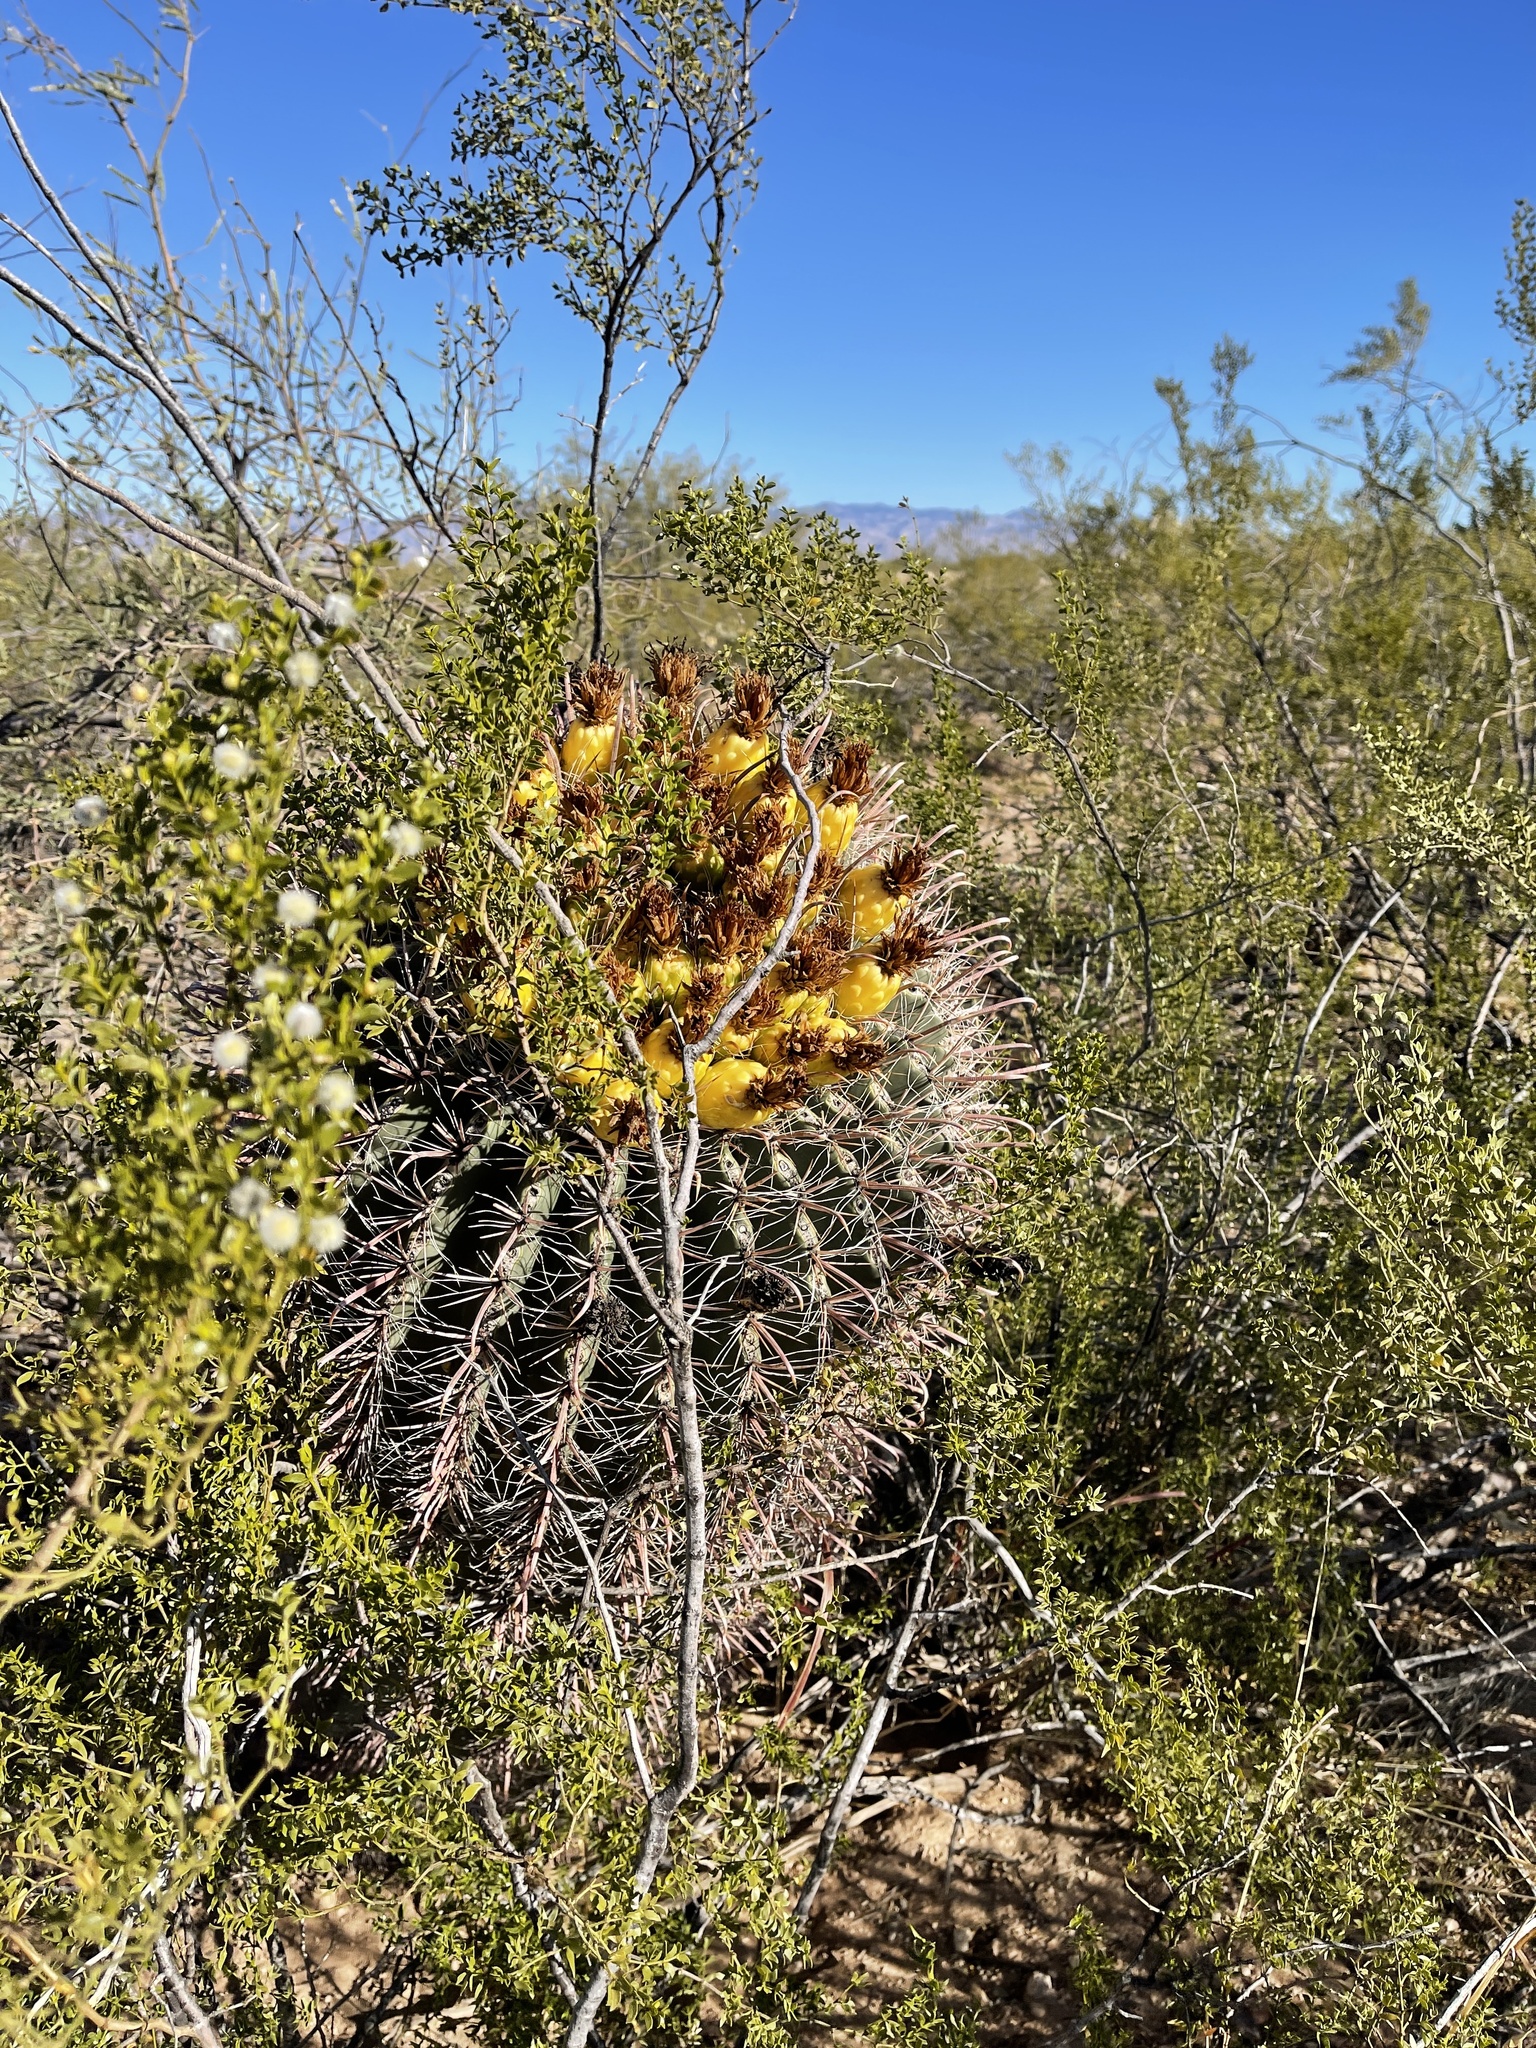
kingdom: Plantae
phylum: Tracheophyta
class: Magnoliopsida
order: Caryophyllales
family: Cactaceae
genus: Ferocactus
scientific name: Ferocactus wislizeni
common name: Candy barrel cactus
